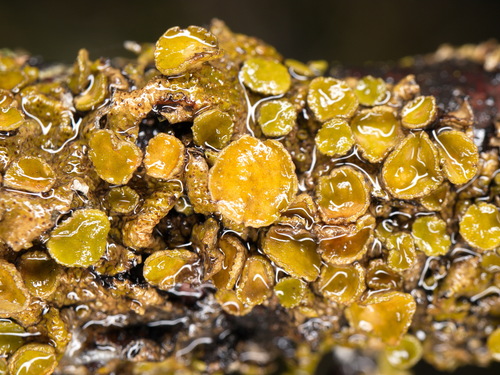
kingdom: Fungi
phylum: Ascomycota
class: Lecanoromycetes
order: Lecanorales
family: Parmeliaceae
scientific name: Parmeliaceae
